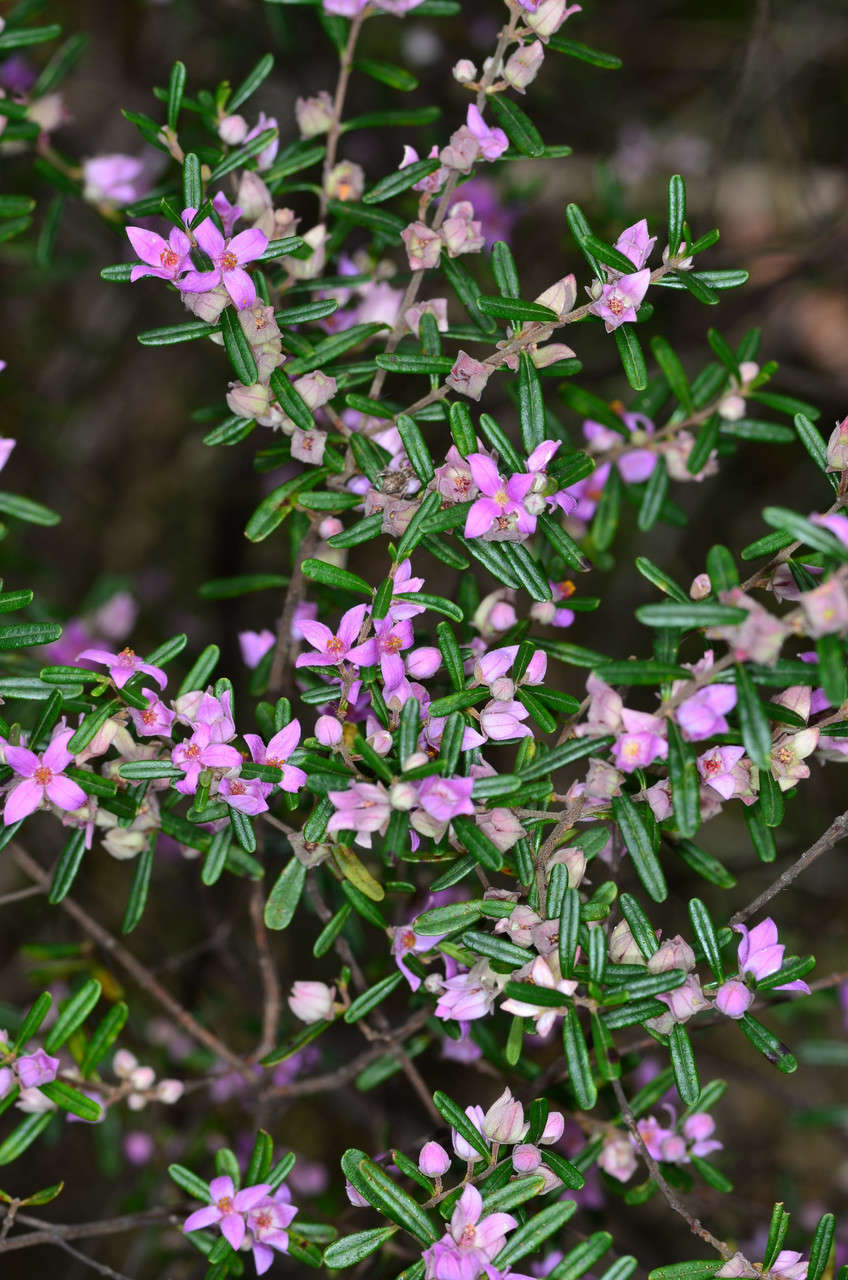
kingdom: Plantae
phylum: Tracheophyta
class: Magnoliopsida
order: Sapindales
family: Rutaceae
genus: Boronia
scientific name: Boronia glabra
